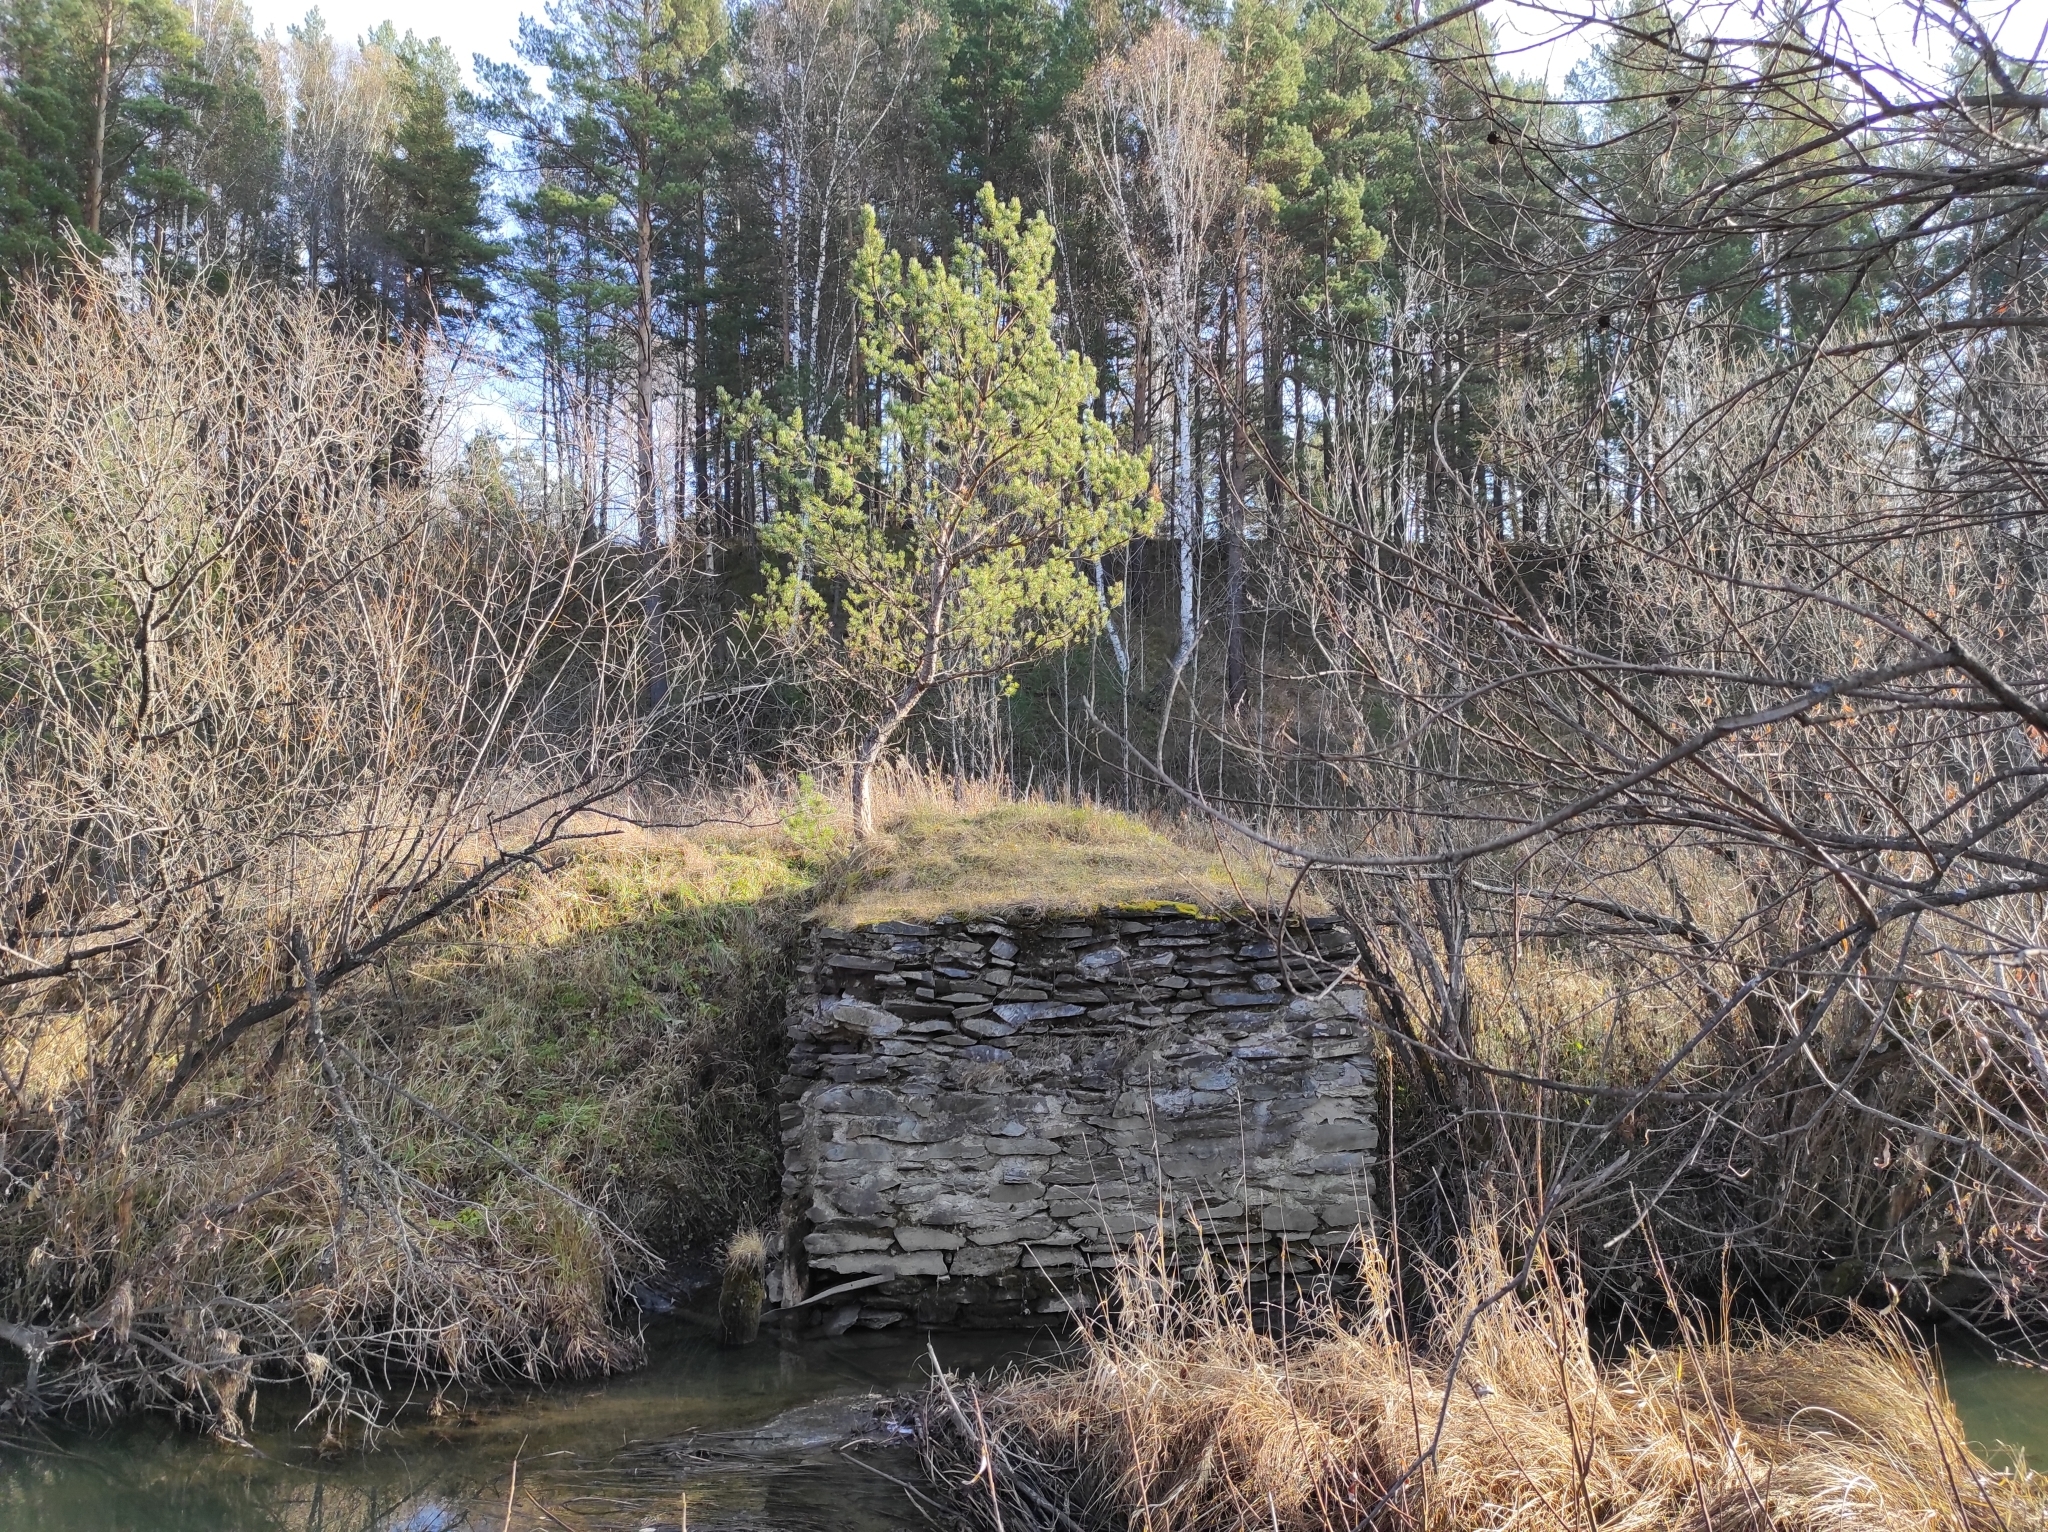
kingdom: Plantae
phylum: Tracheophyta
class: Pinopsida
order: Pinales
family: Pinaceae
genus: Pinus
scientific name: Pinus sylvestris
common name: Scots pine
